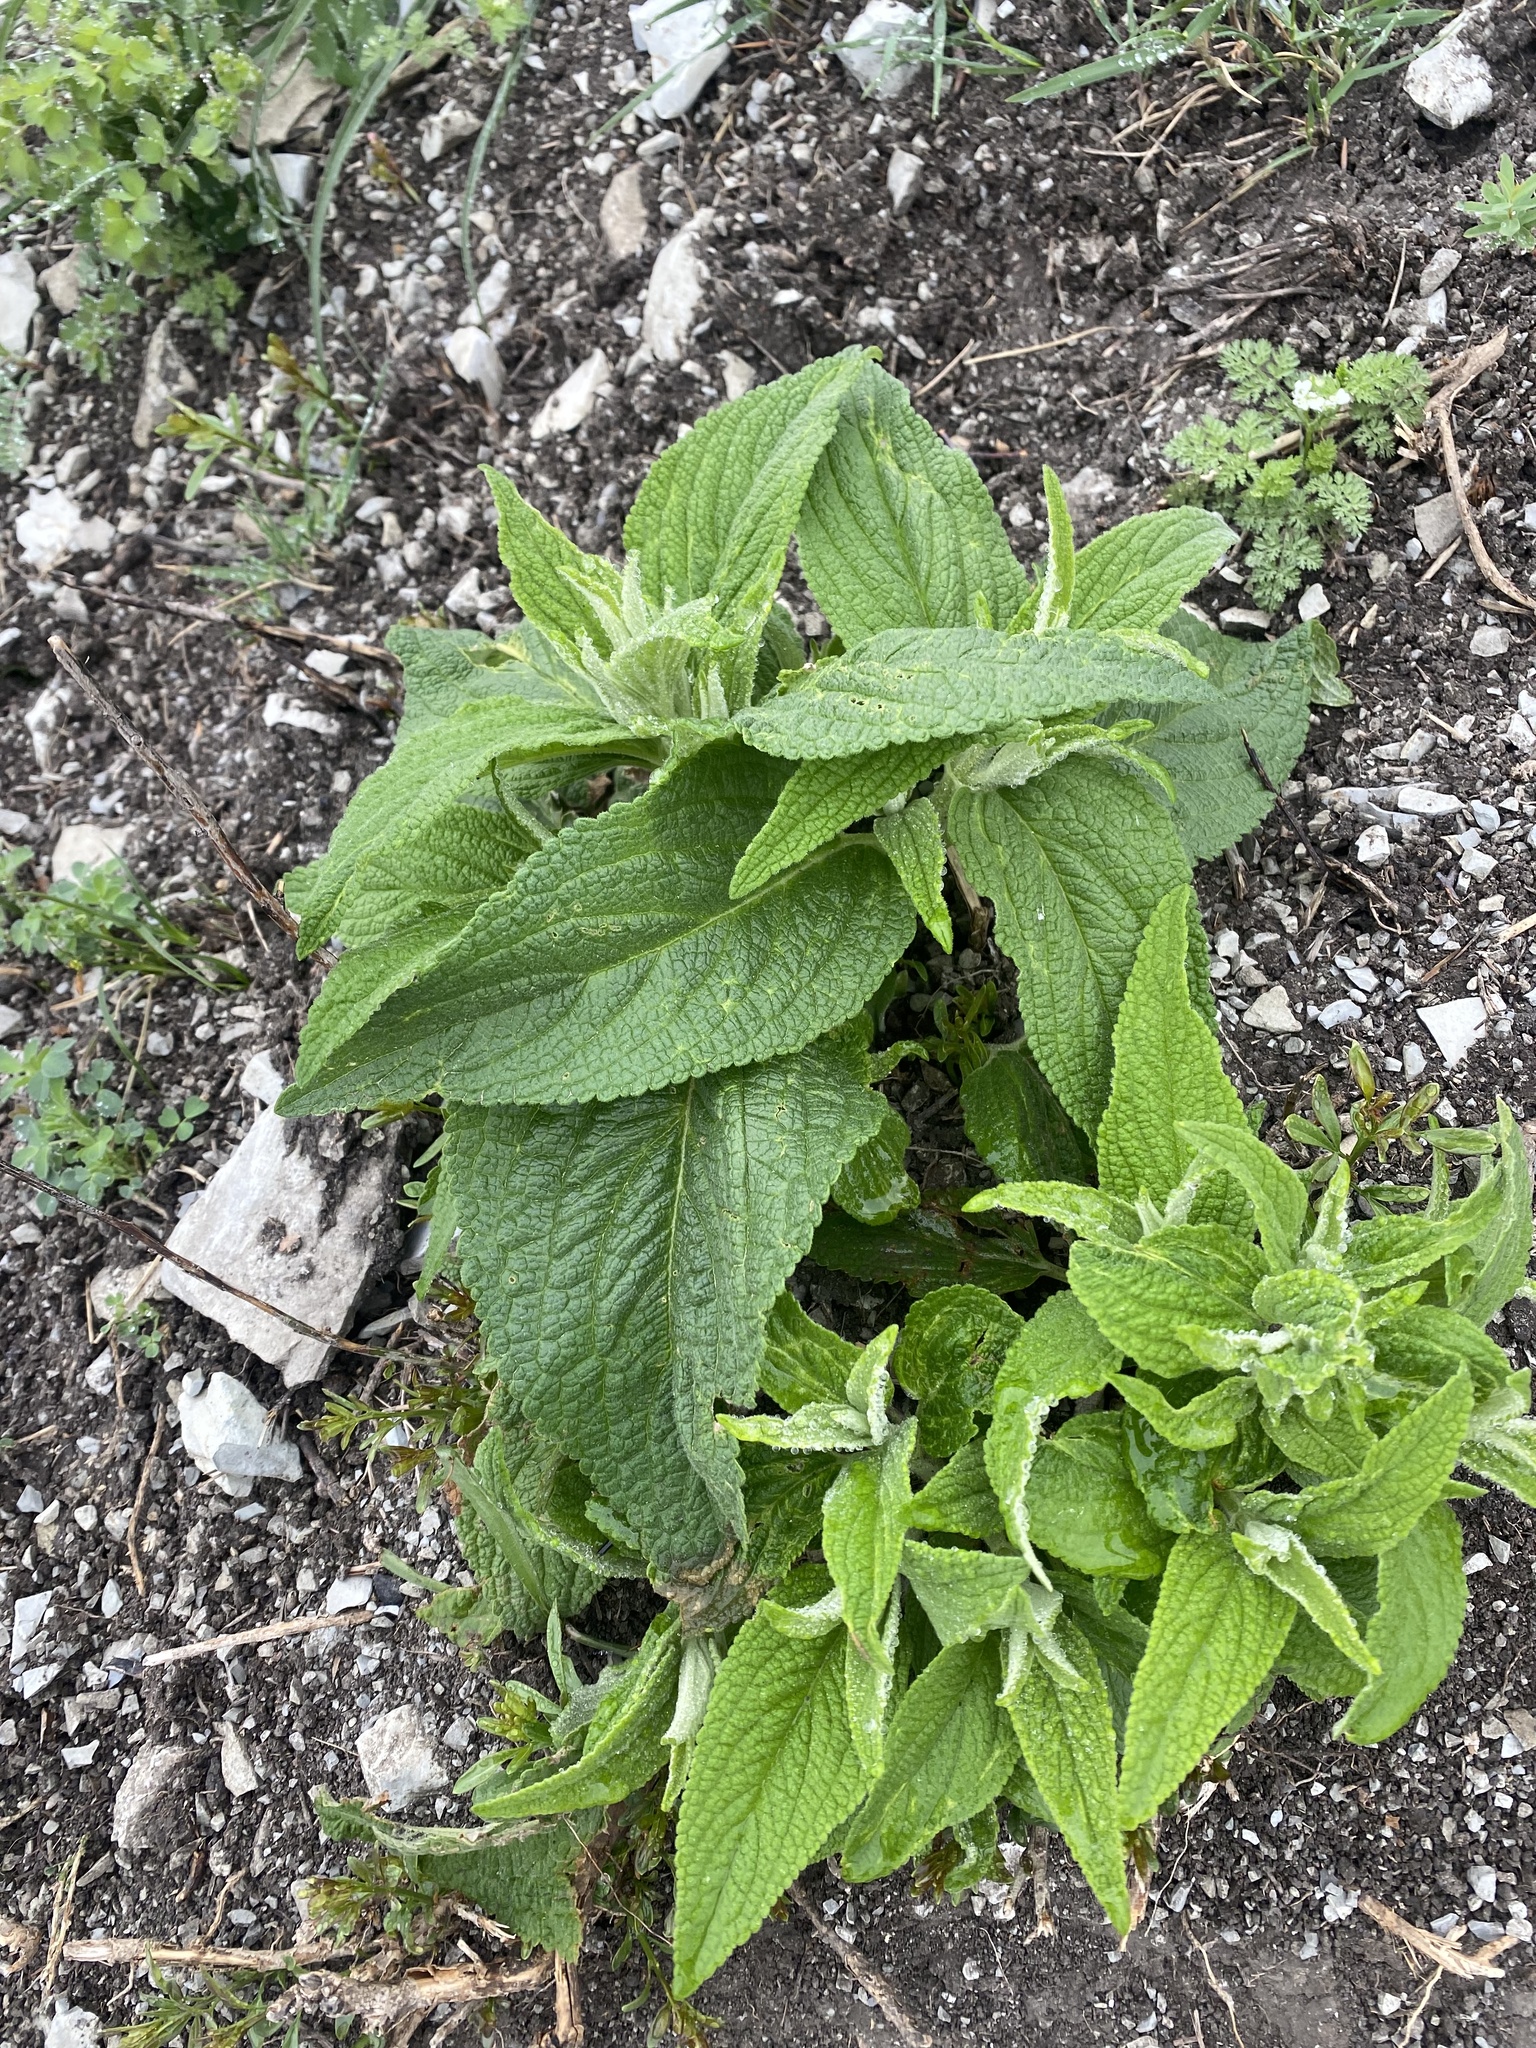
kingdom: Plantae
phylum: Tracheophyta
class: Magnoliopsida
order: Lamiales
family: Lamiaceae
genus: Phlomis
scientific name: Phlomis herba-venti
